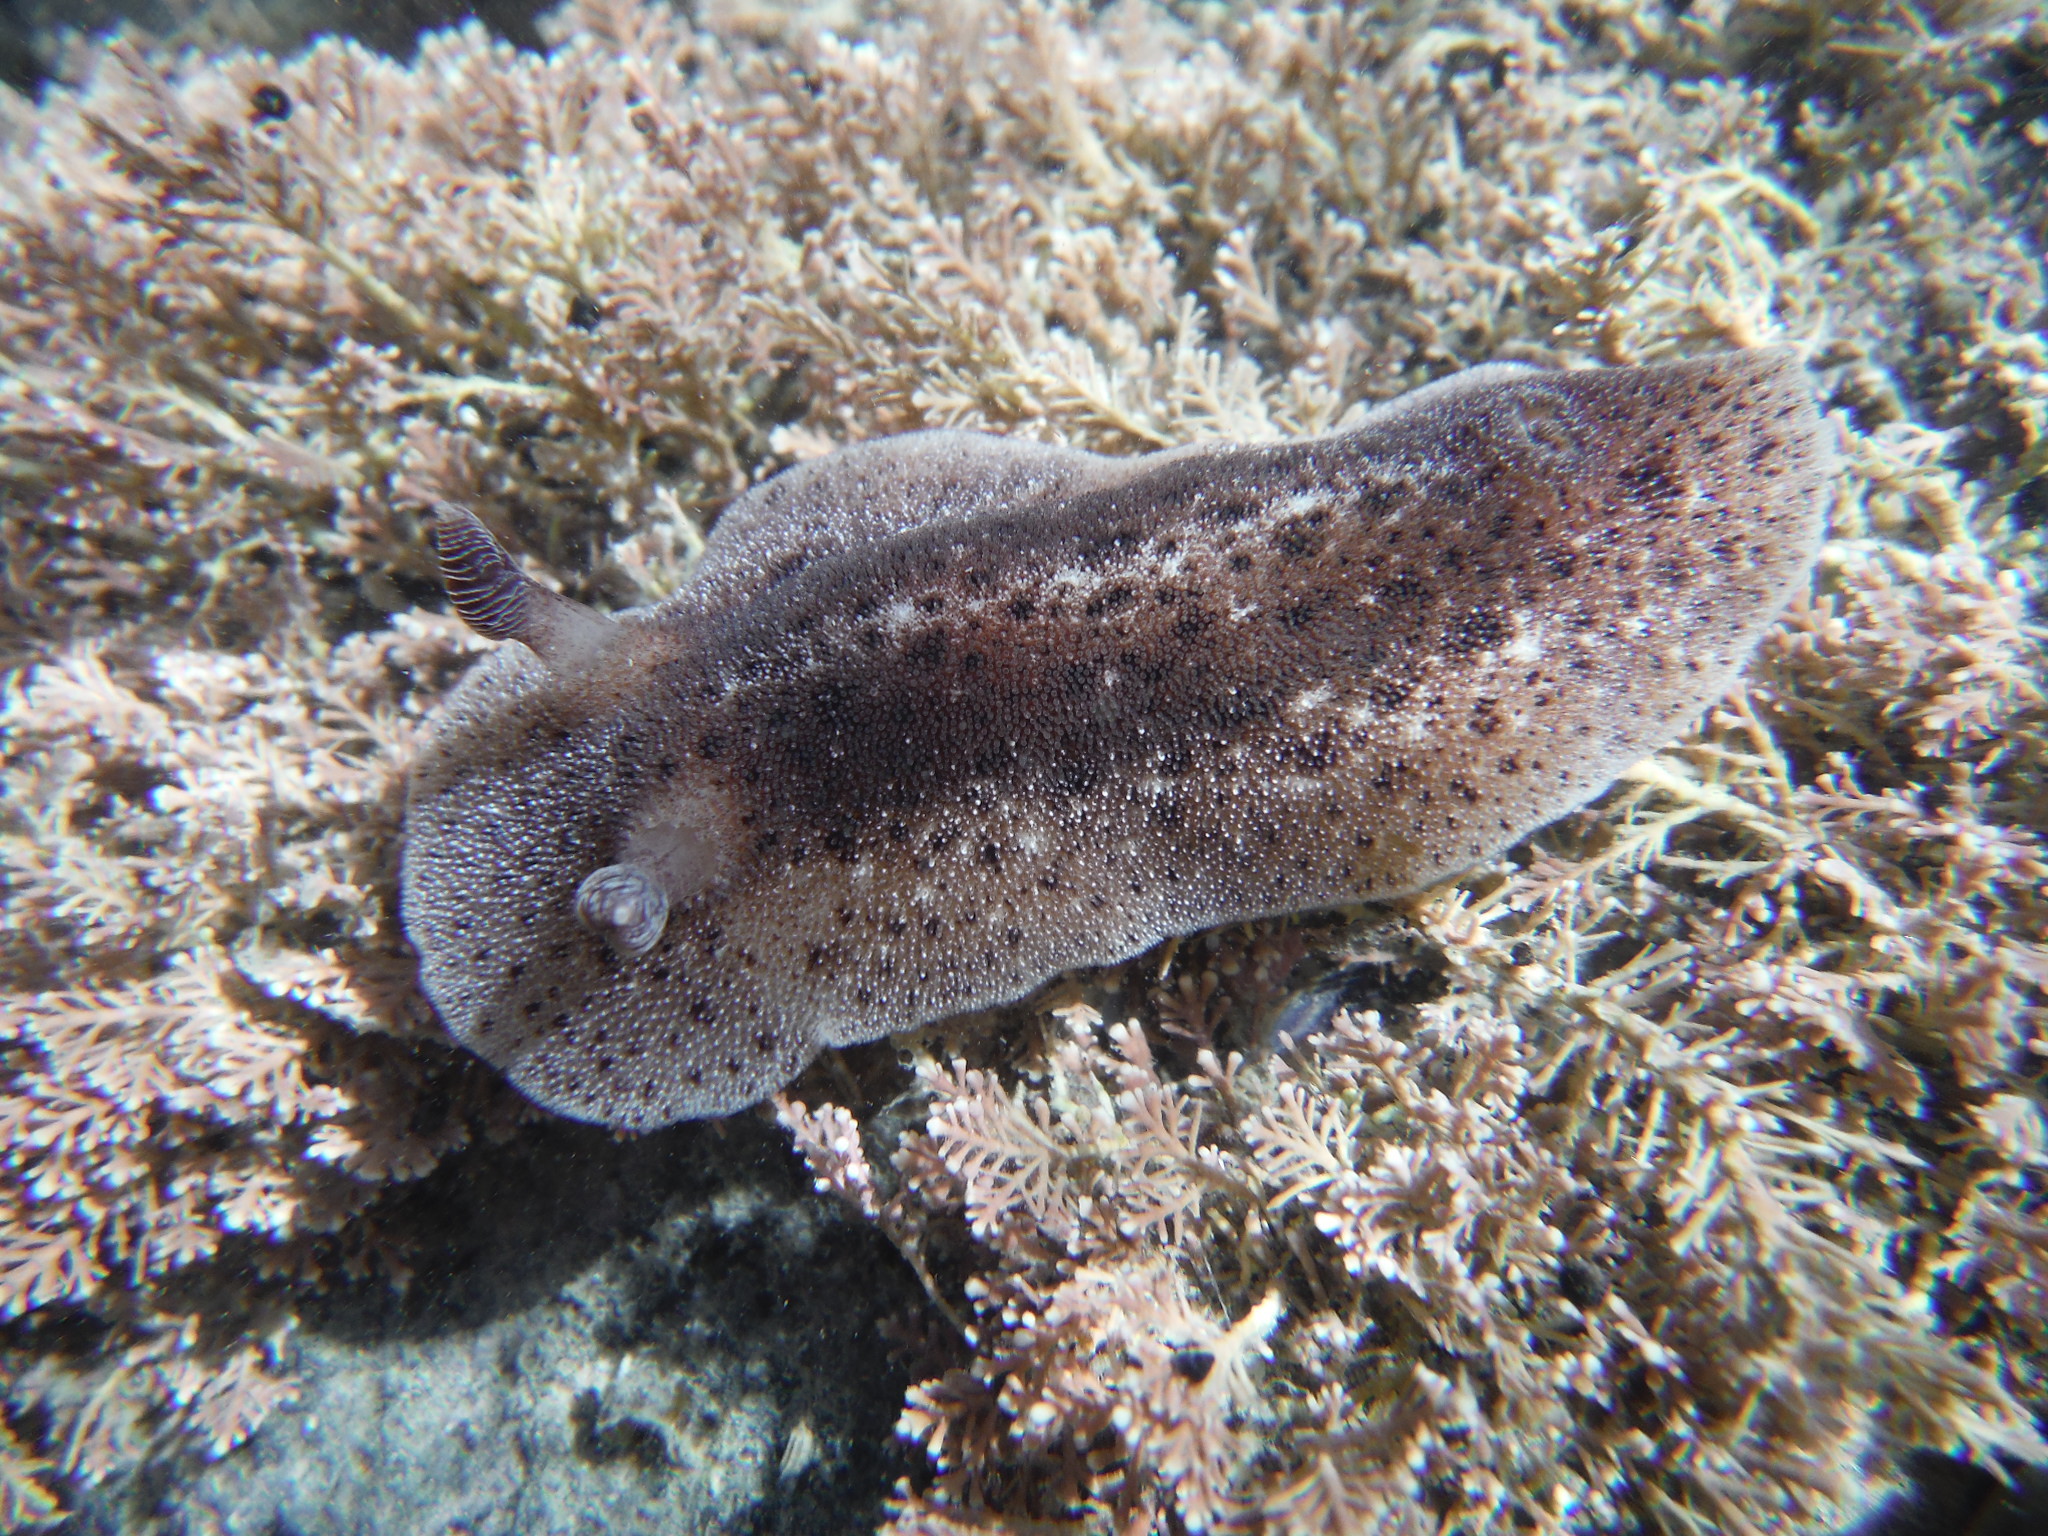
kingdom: Animalia
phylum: Mollusca
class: Gastropoda
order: Nudibranchia
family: Discodorididae
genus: Alloiodoris
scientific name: Alloiodoris lanuginata
